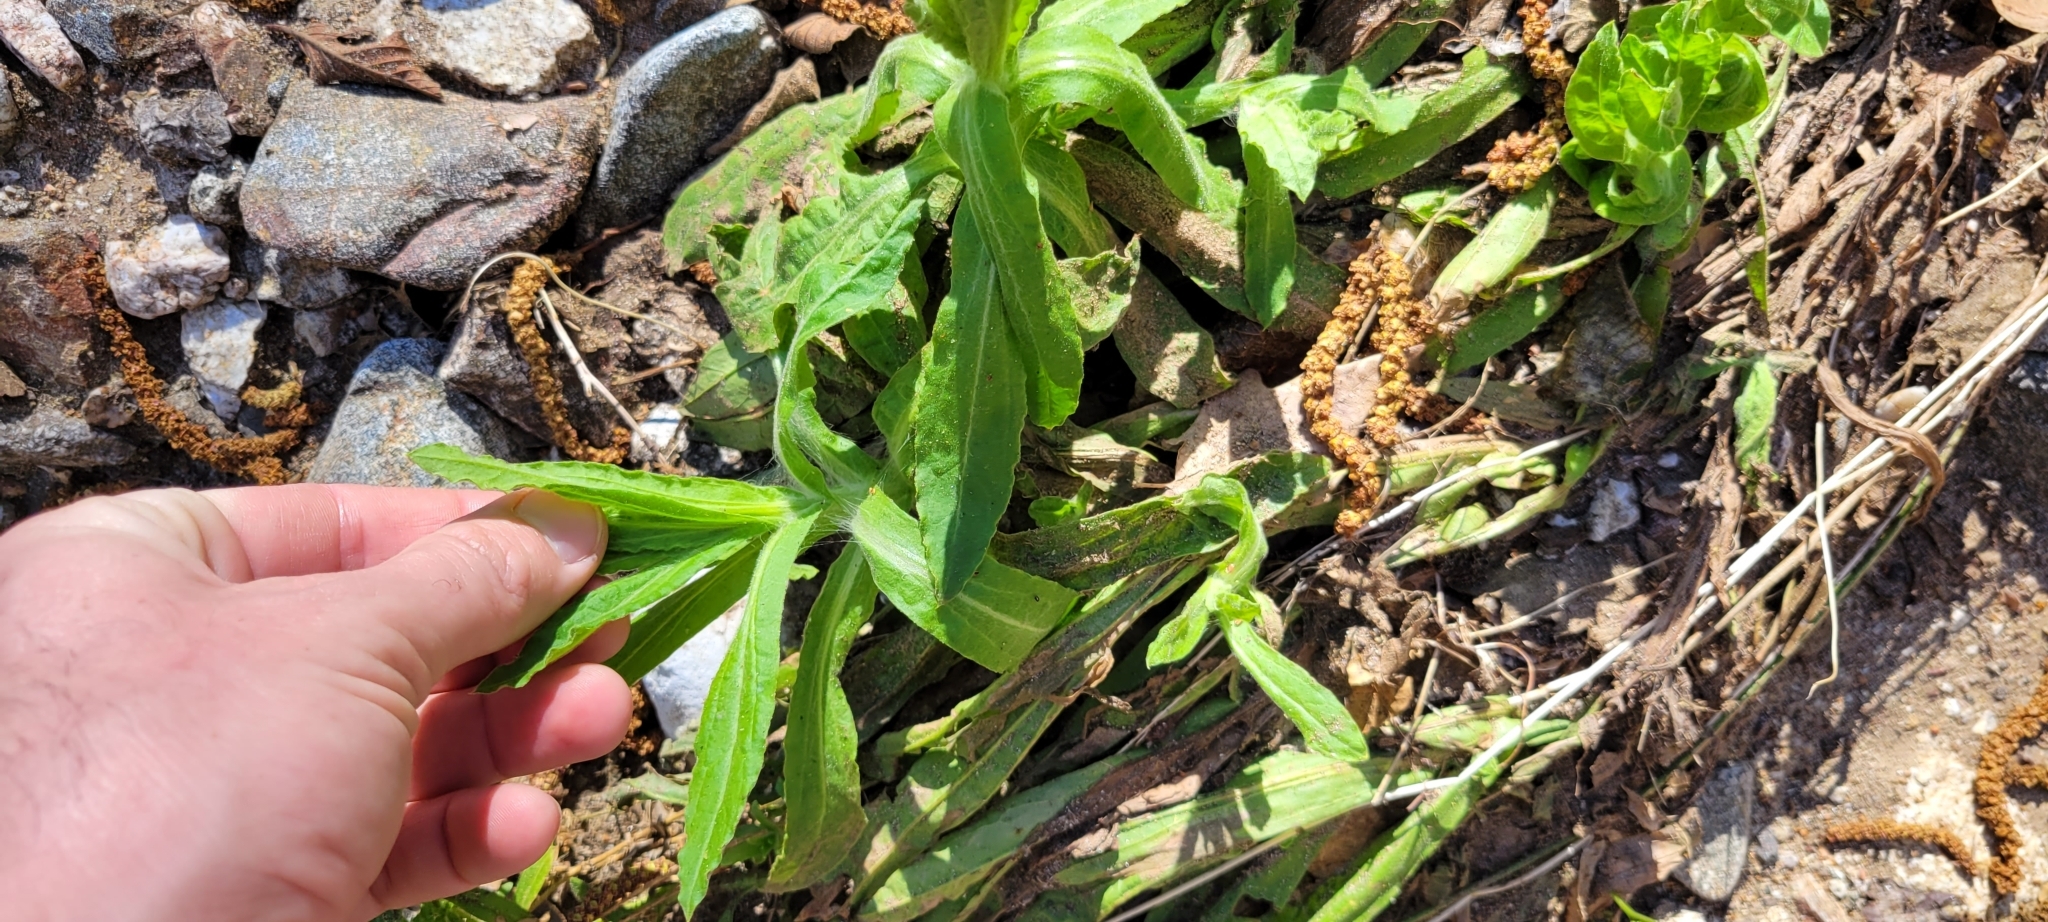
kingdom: Plantae
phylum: Tracheophyta
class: Magnoliopsida
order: Asterales
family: Asteraceae
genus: Pseudognaphalium
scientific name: Pseudognaphalium californicum
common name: California rabbit-tobacco
